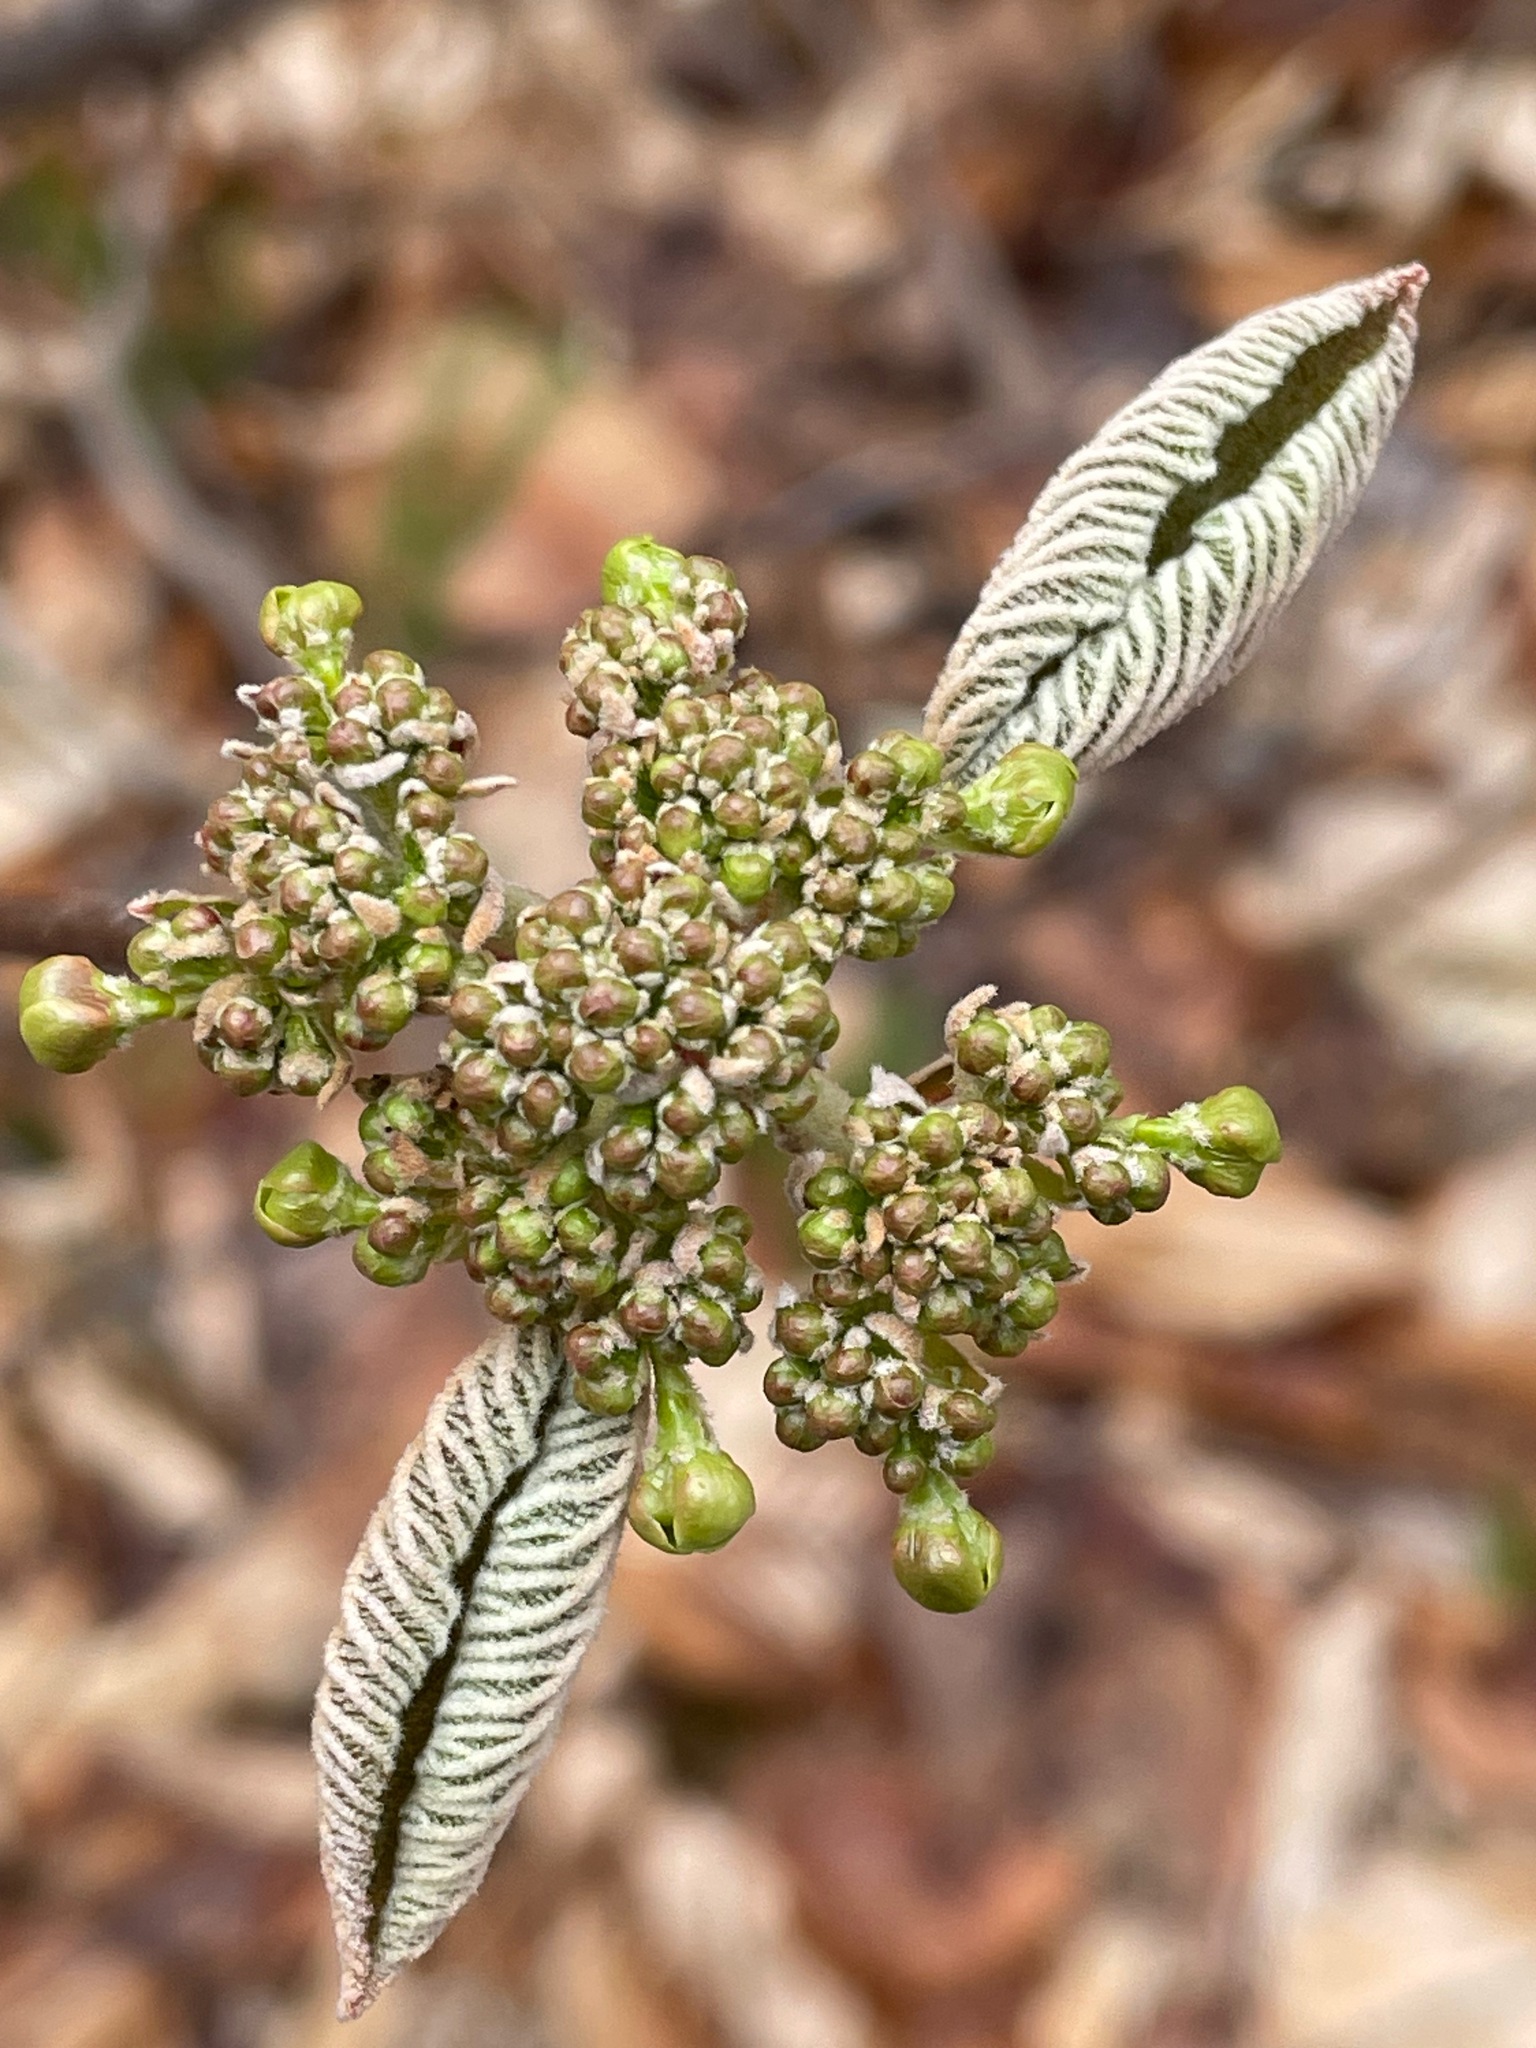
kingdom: Plantae
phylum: Tracheophyta
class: Magnoliopsida
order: Dipsacales
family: Viburnaceae
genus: Viburnum
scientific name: Viburnum lantanoides
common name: Hobblebush
